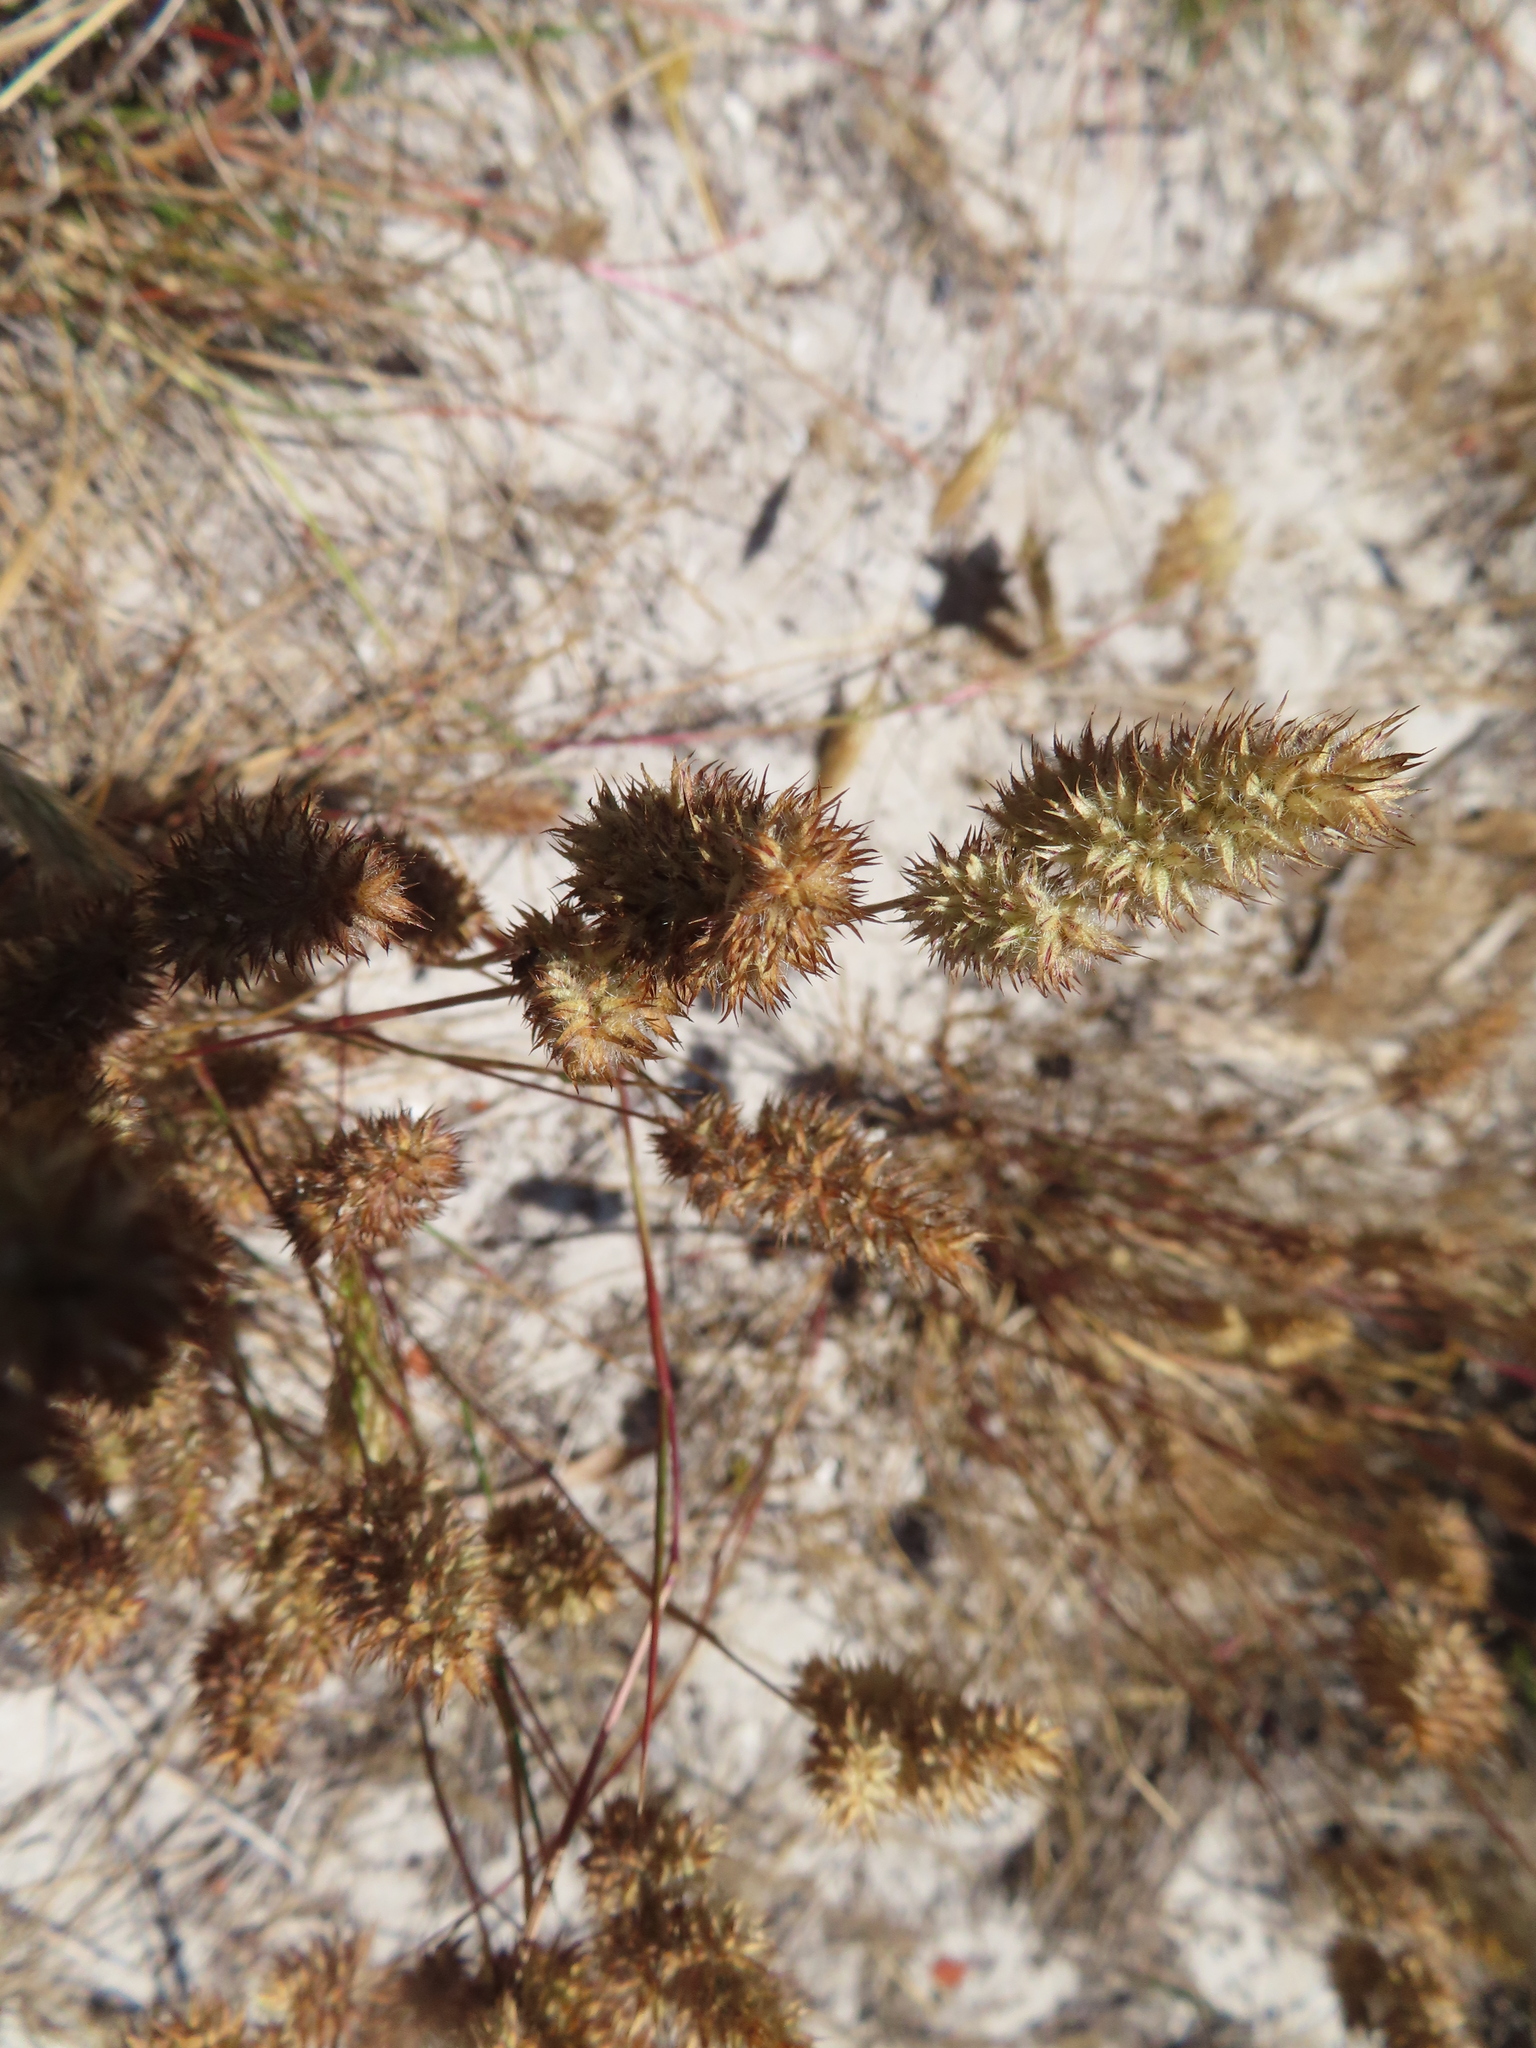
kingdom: Plantae
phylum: Tracheophyta
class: Liliopsida
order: Poales
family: Poaceae
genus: Tribolium
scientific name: Tribolium hispidum
